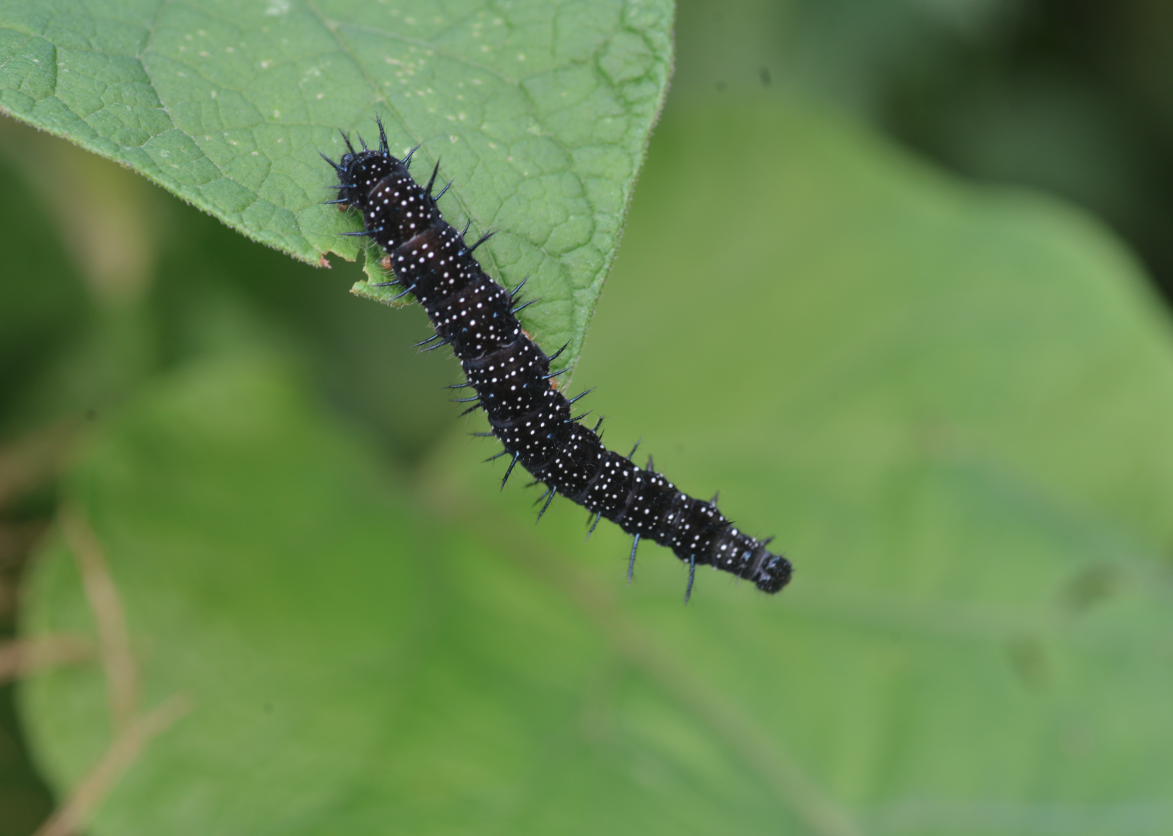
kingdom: Animalia
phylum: Arthropoda
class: Insecta
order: Lepidoptera
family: Nymphalidae
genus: Aglais
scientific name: Aglais io
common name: Peacock
